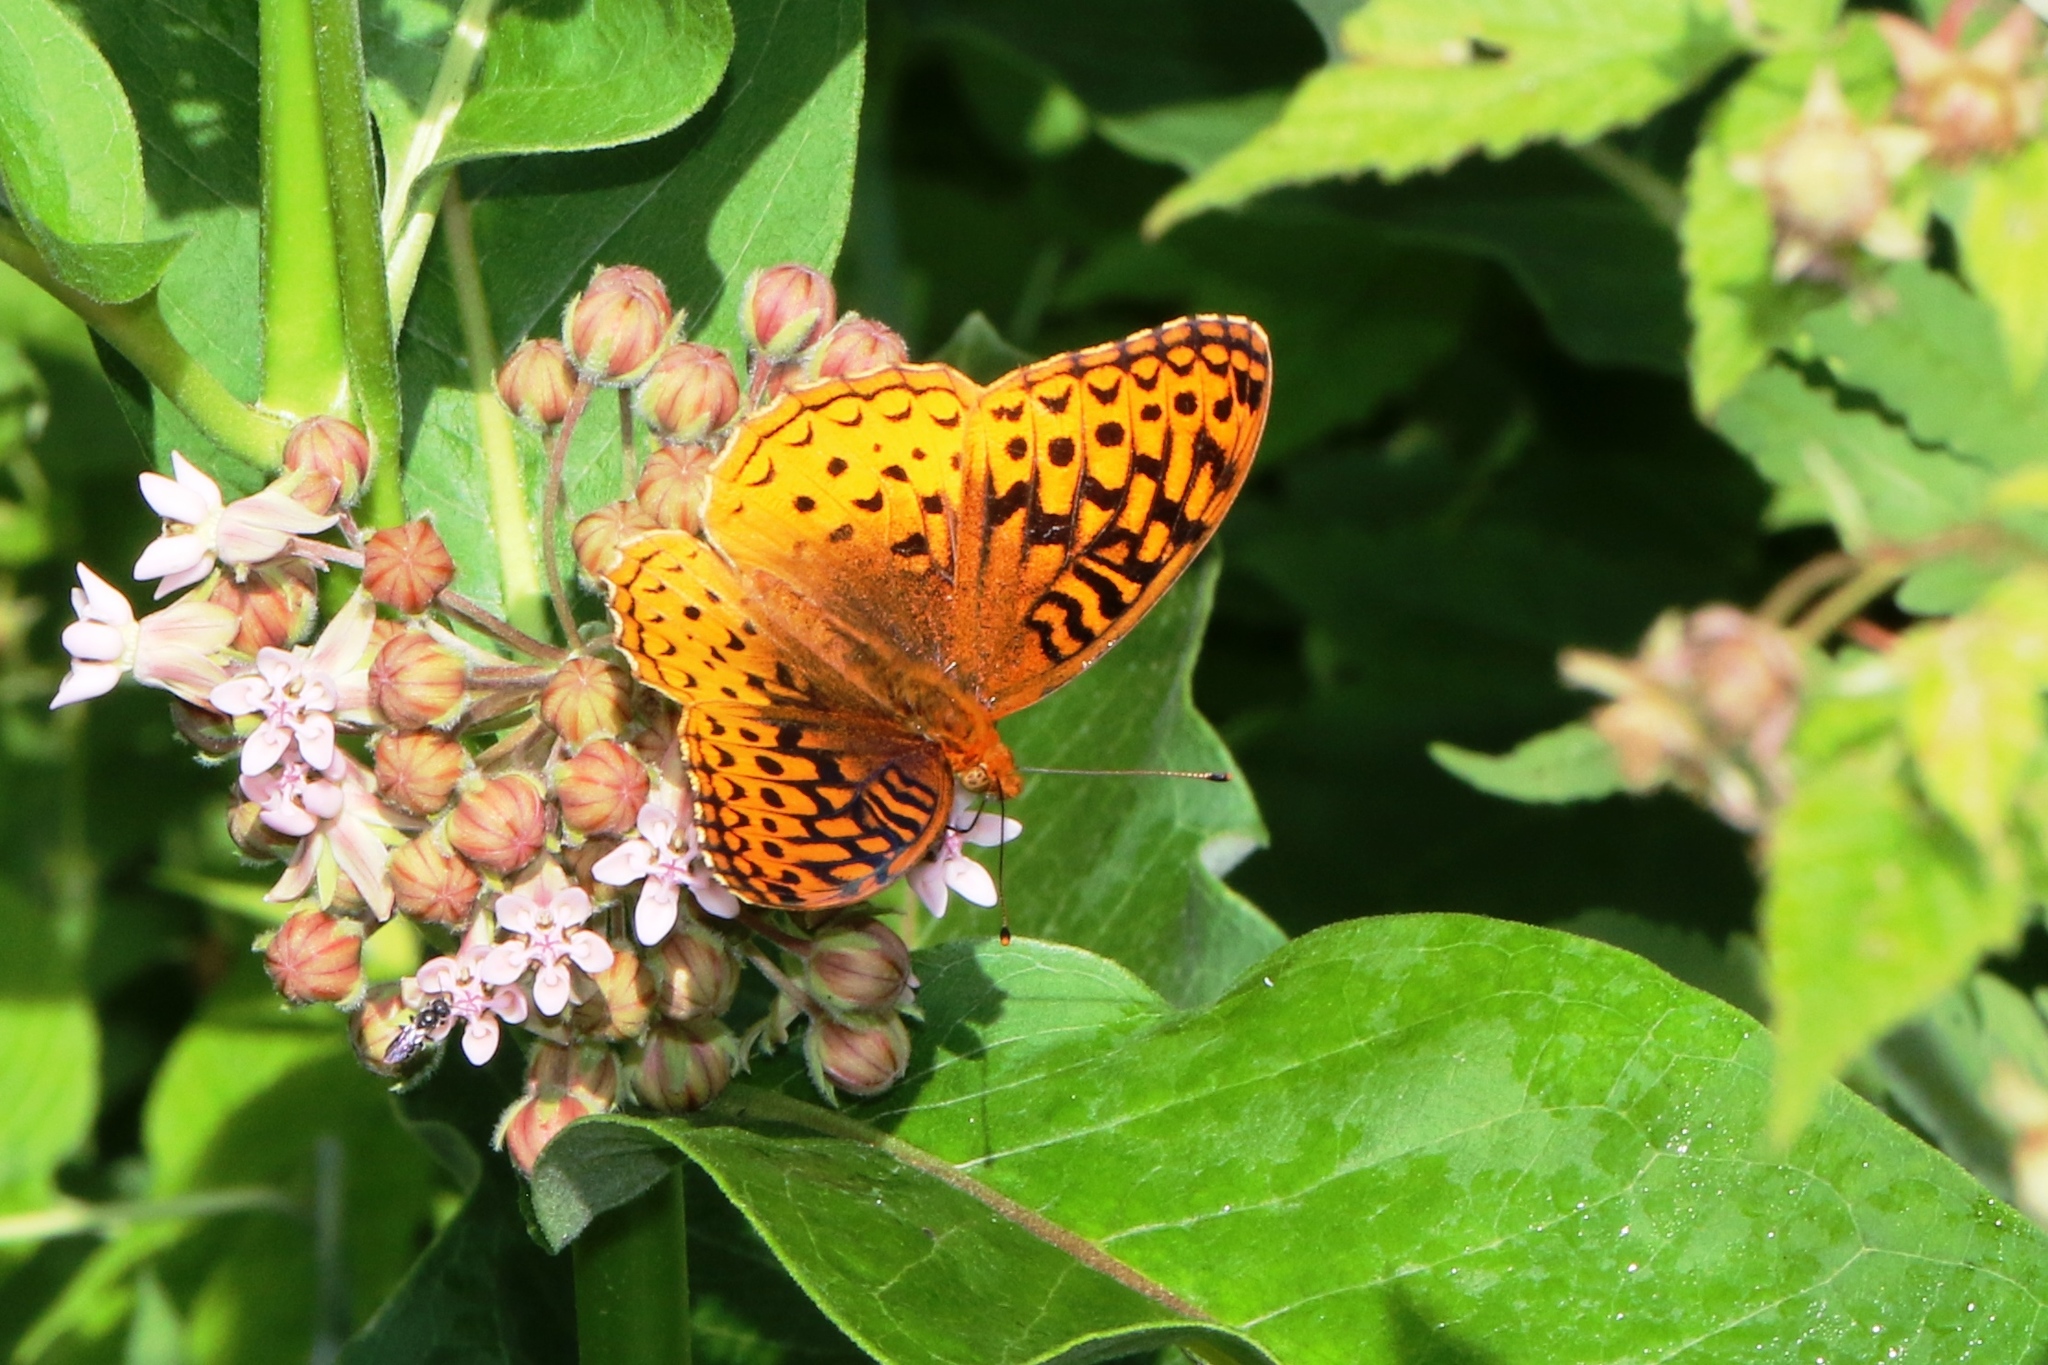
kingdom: Animalia
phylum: Arthropoda
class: Insecta
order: Lepidoptera
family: Nymphalidae
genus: Speyeria
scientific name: Speyeria cybele
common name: Great spangled fritillary
